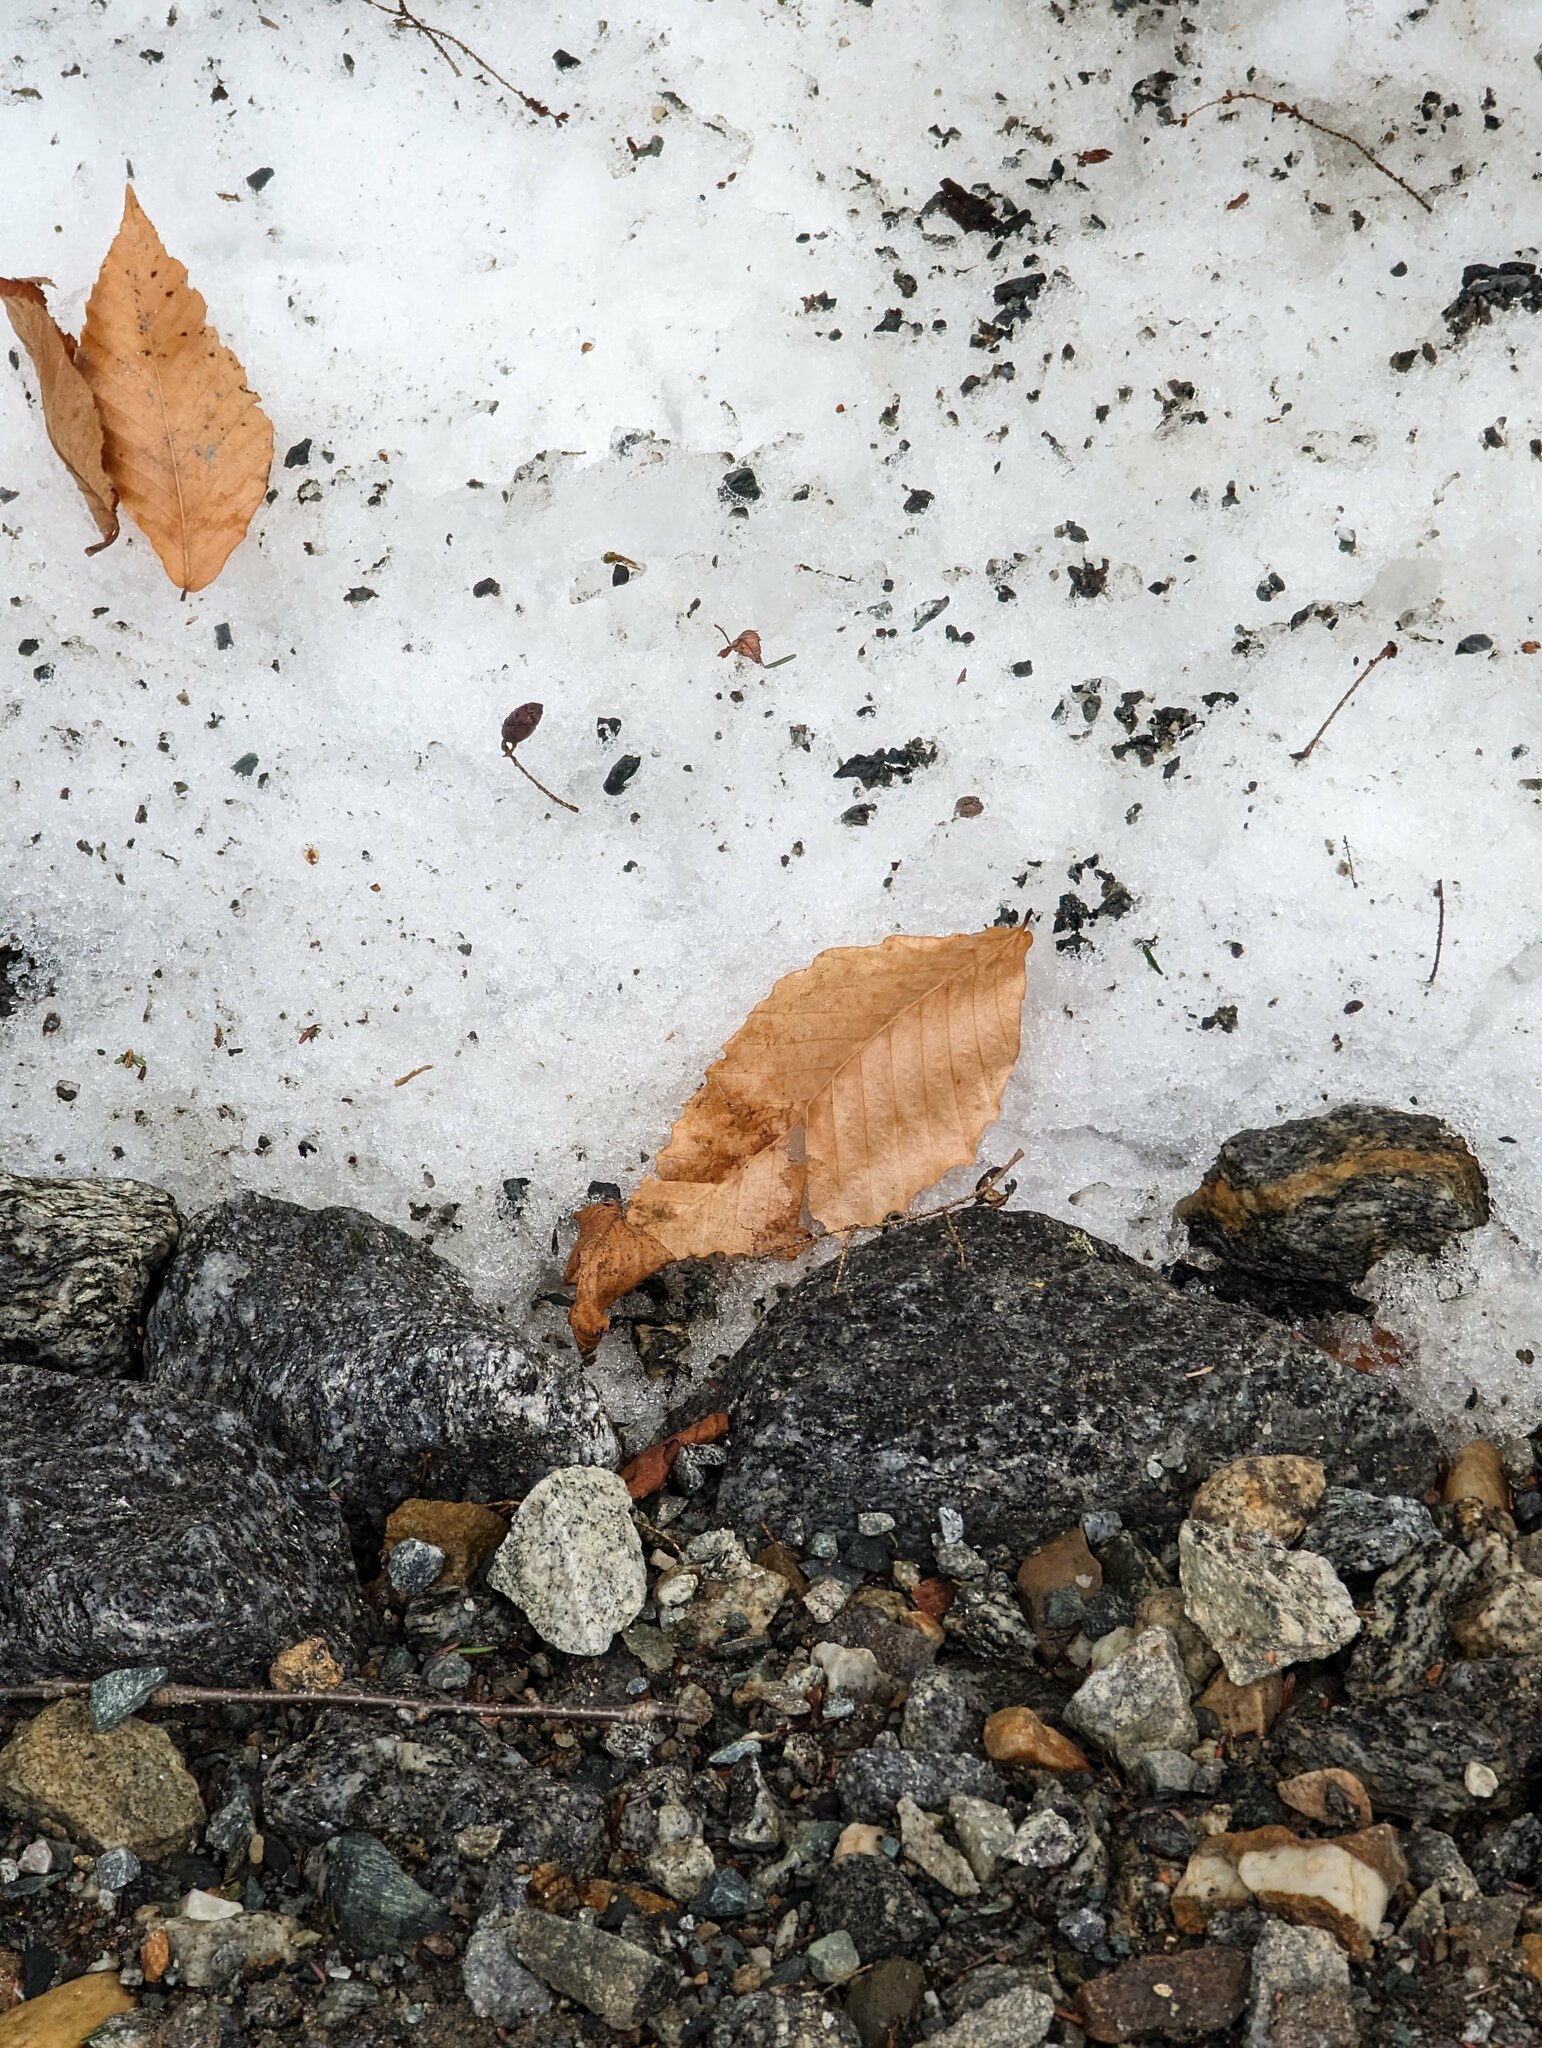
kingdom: Plantae
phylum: Tracheophyta
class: Magnoliopsida
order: Fagales
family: Fagaceae
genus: Fagus
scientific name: Fagus grandifolia
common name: American beech
